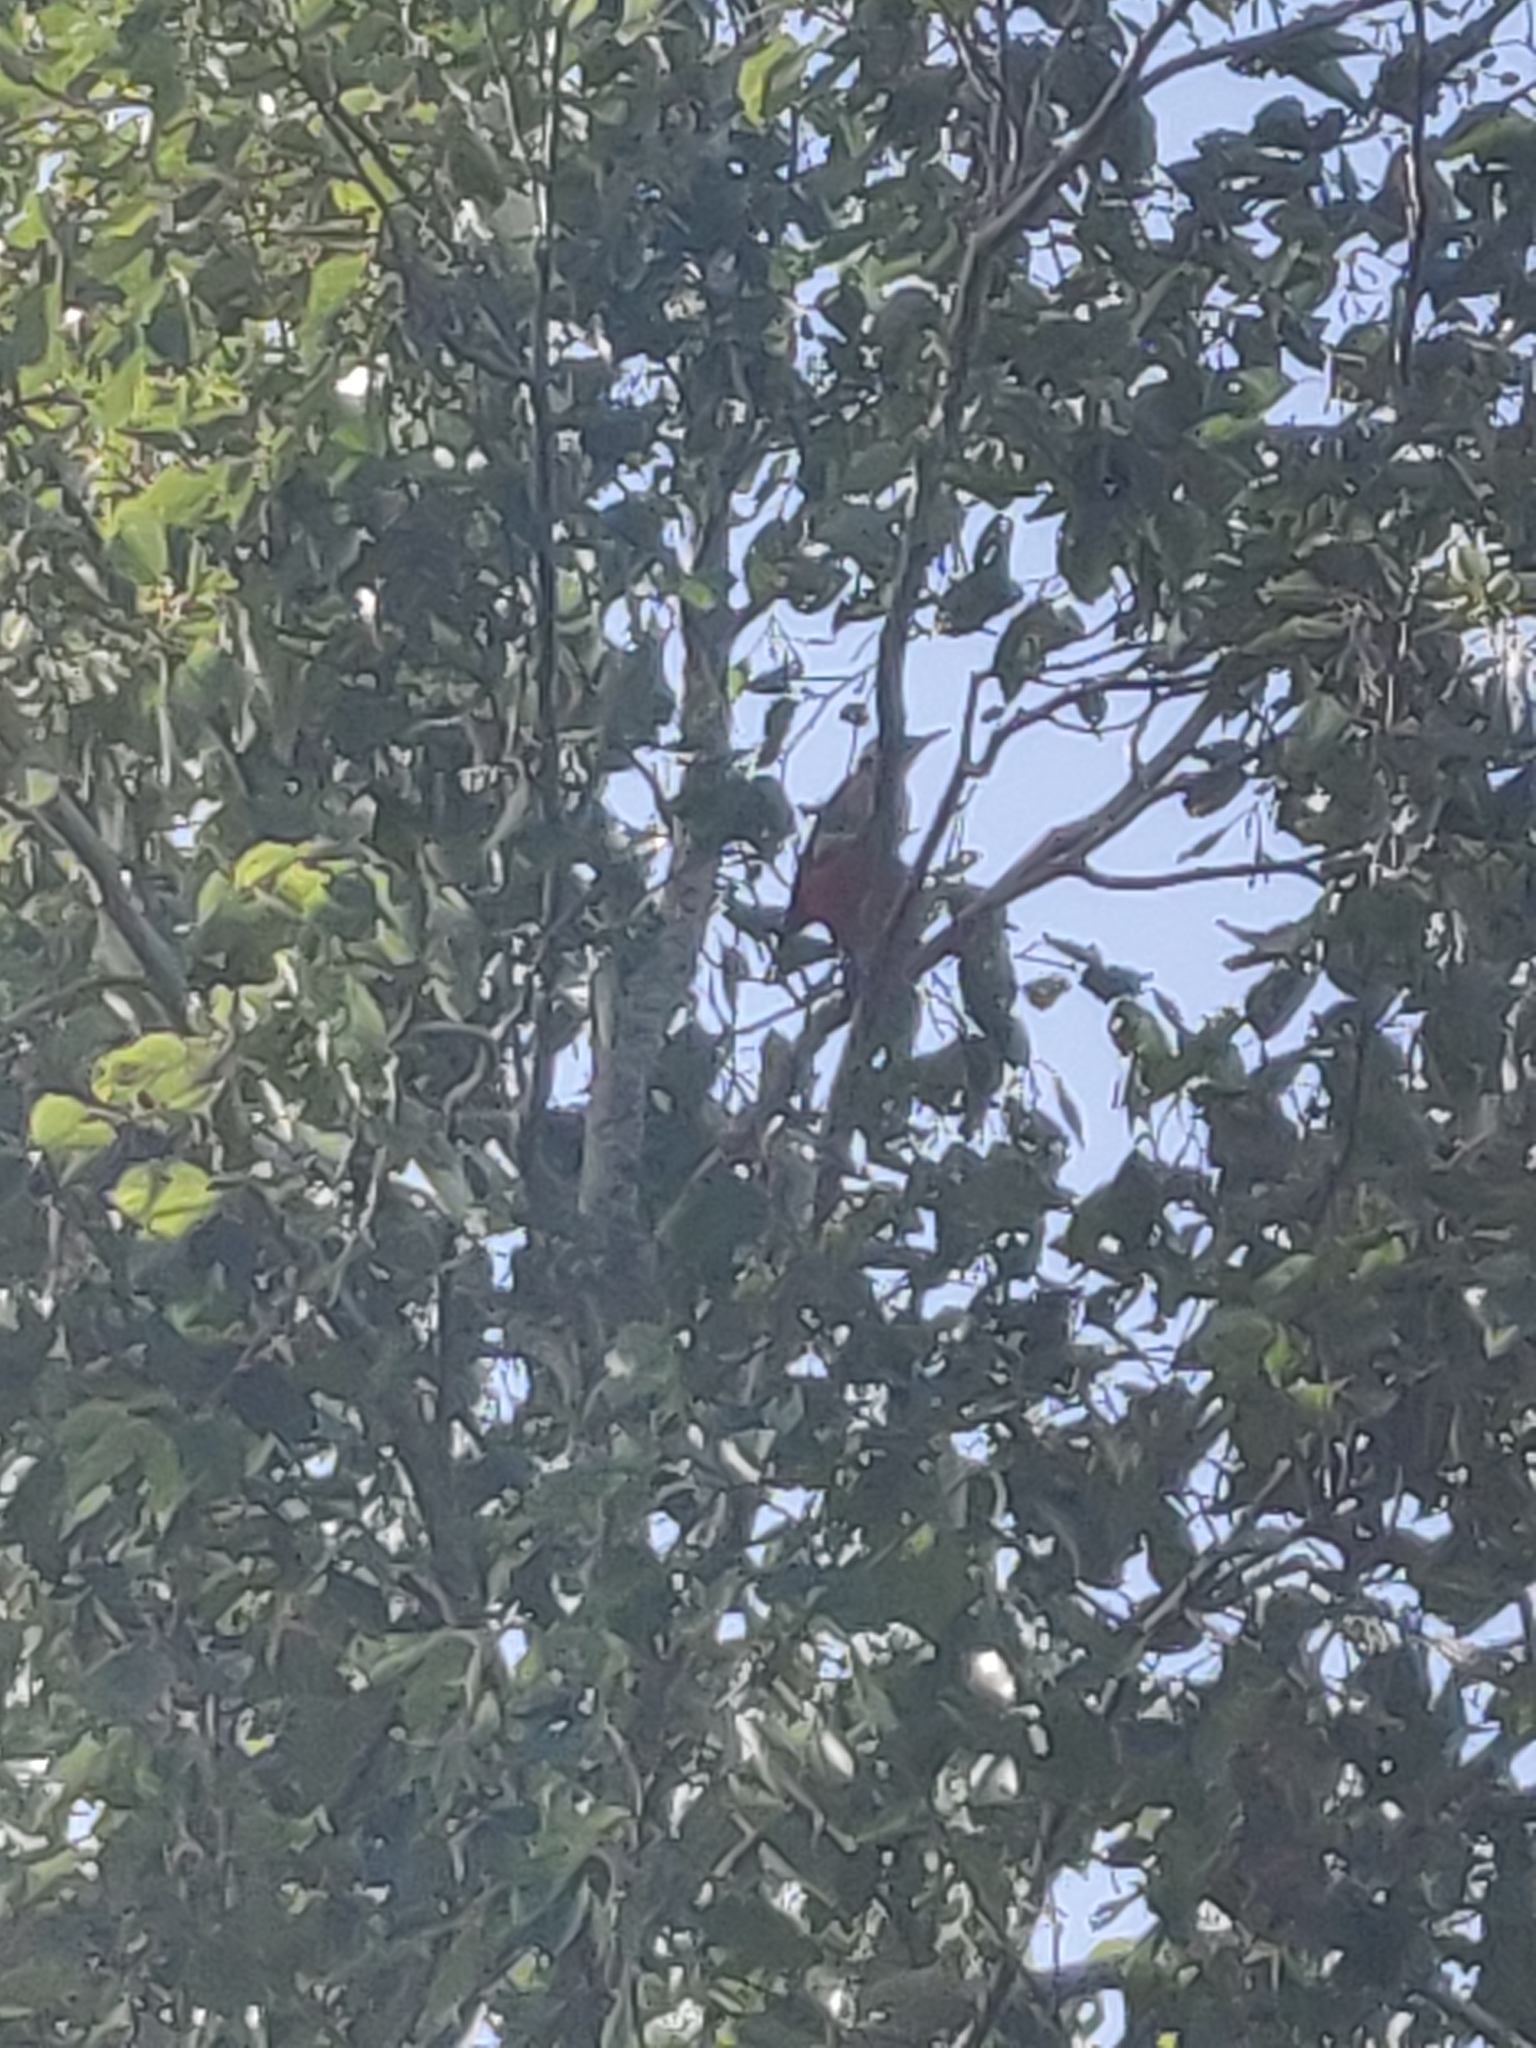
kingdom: Animalia
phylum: Chordata
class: Aves
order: Piciformes
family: Picidae
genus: Dendrocopos
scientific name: Dendrocopos major
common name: Great spotted woodpecker
